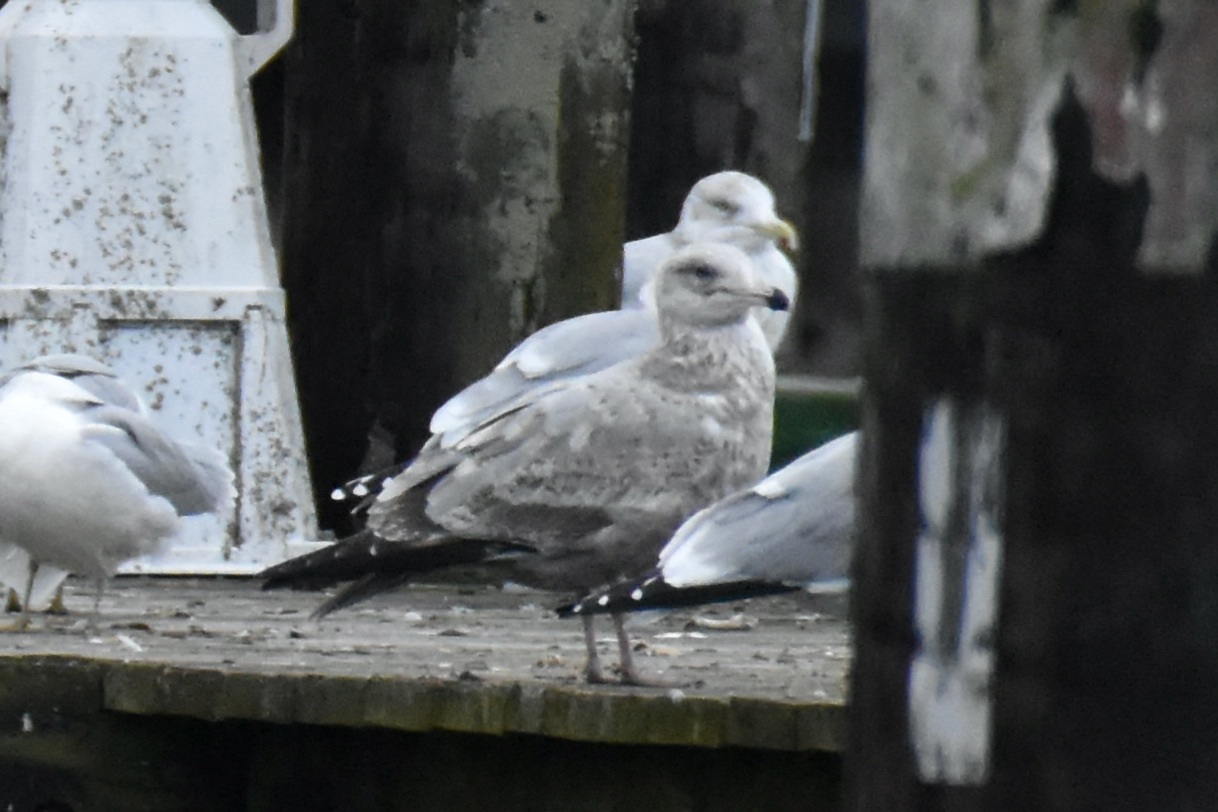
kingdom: Animalia
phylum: Chordata
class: Aves
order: Charadriiformes
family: Laridae
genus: Larus
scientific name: Larus argentatus
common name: Herring gull
